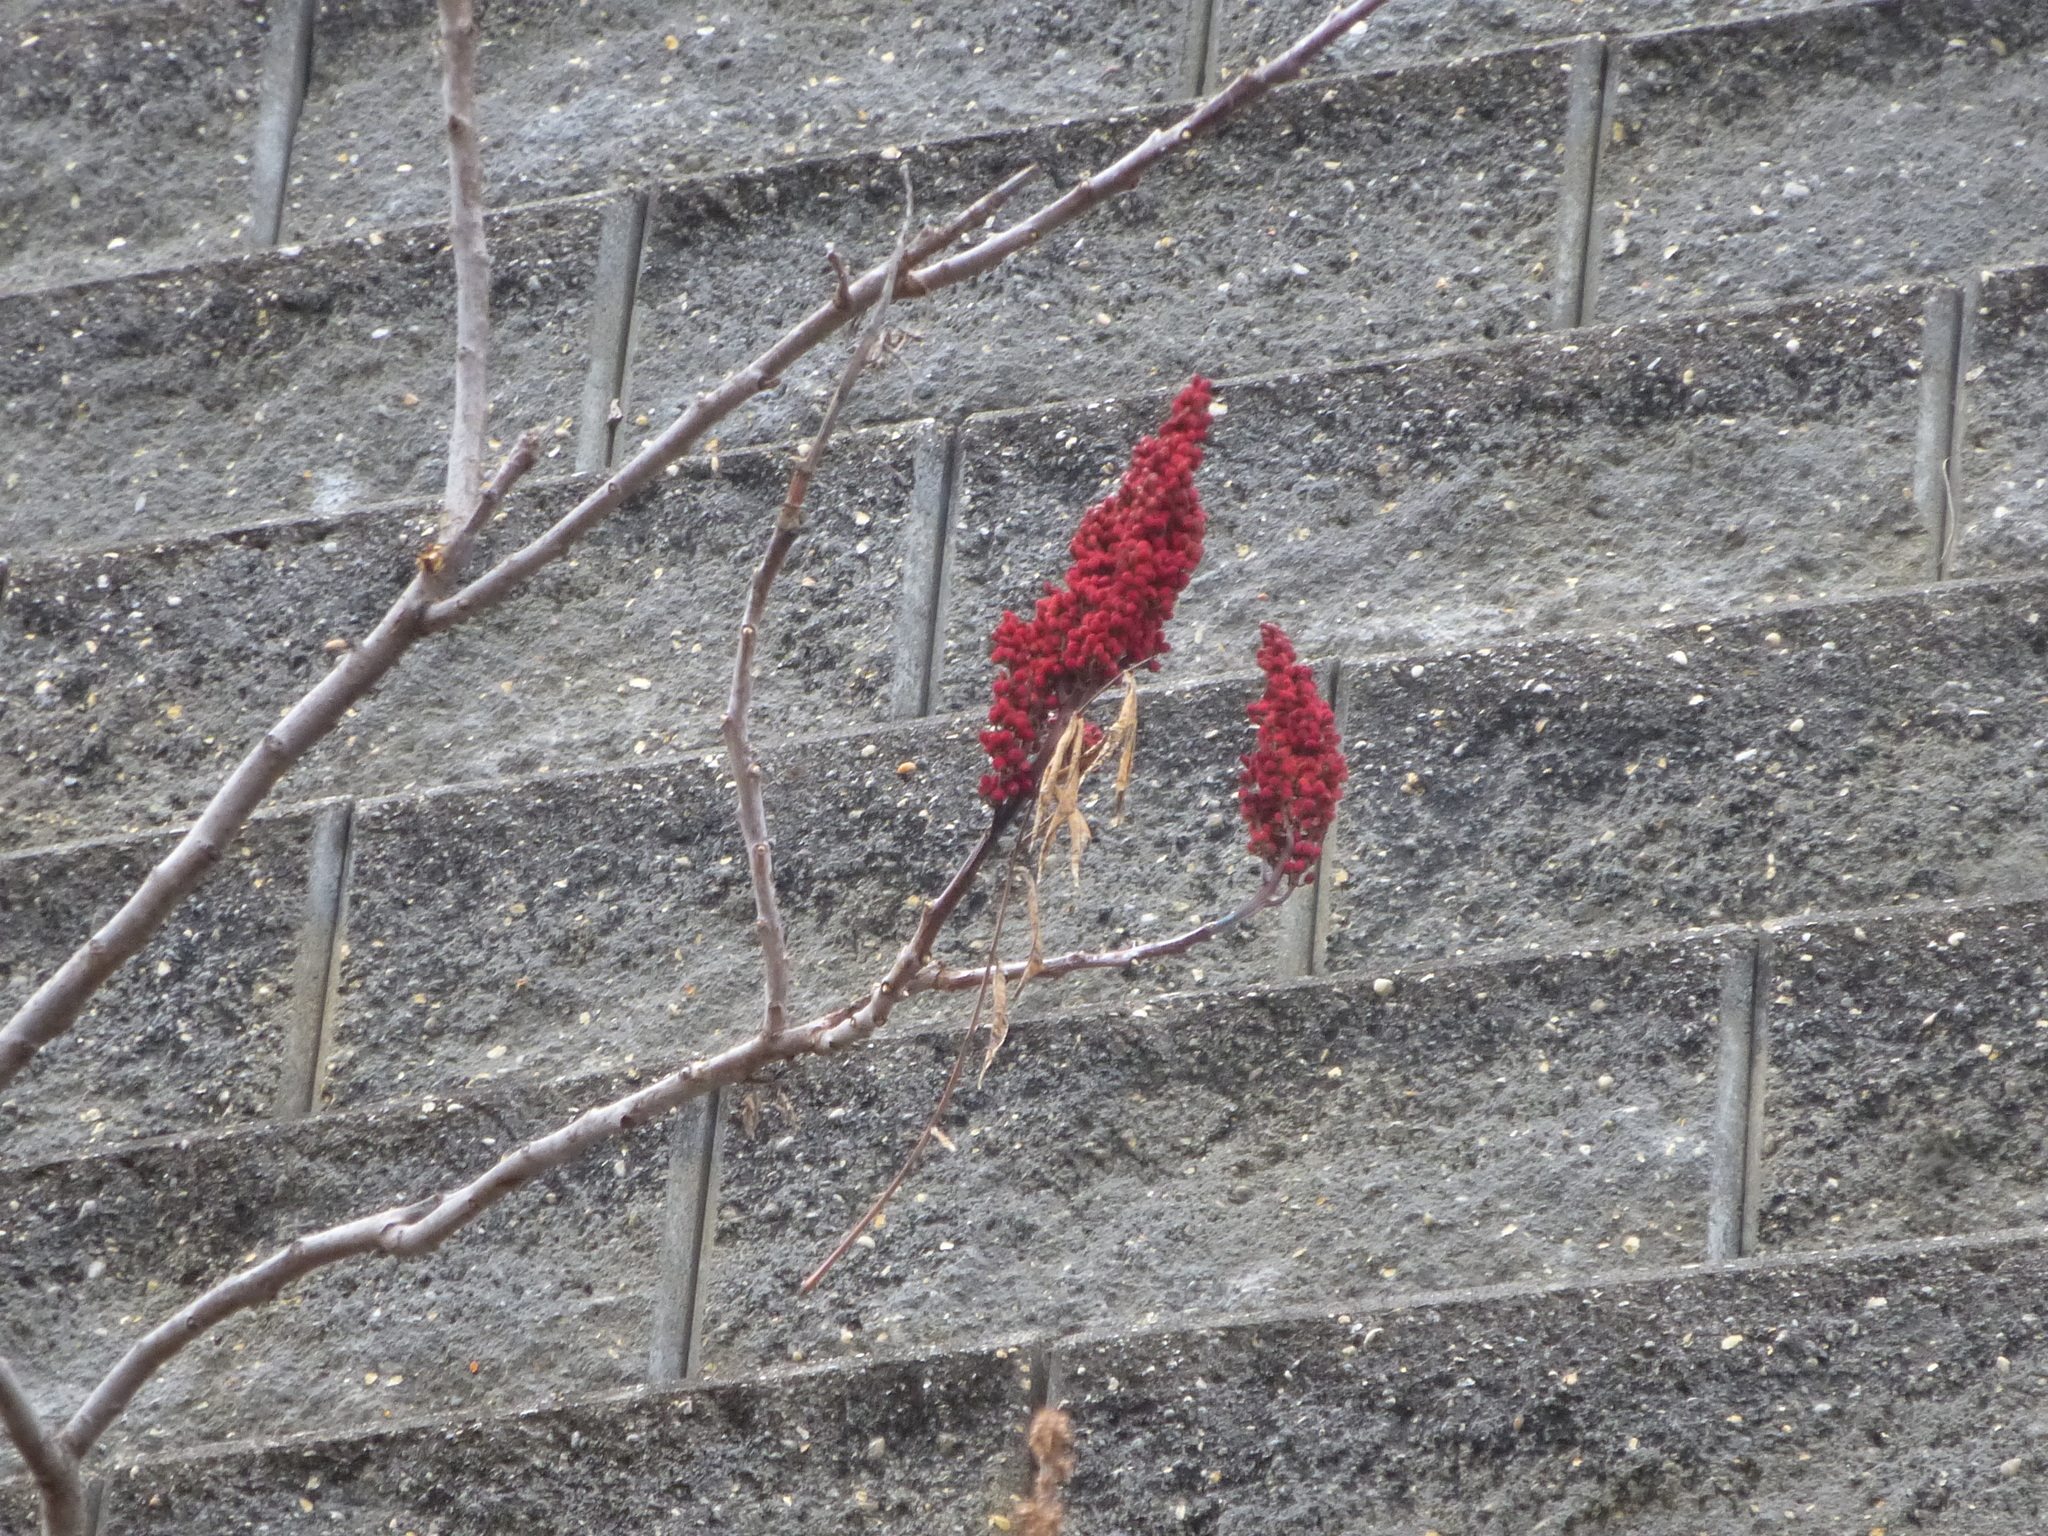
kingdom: Plantae
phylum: Tracheophyta
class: Magnoliopsida
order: Sapindales
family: Anacardiaceae
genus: Rhus
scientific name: Rhus glabra
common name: Scarlet sumac
